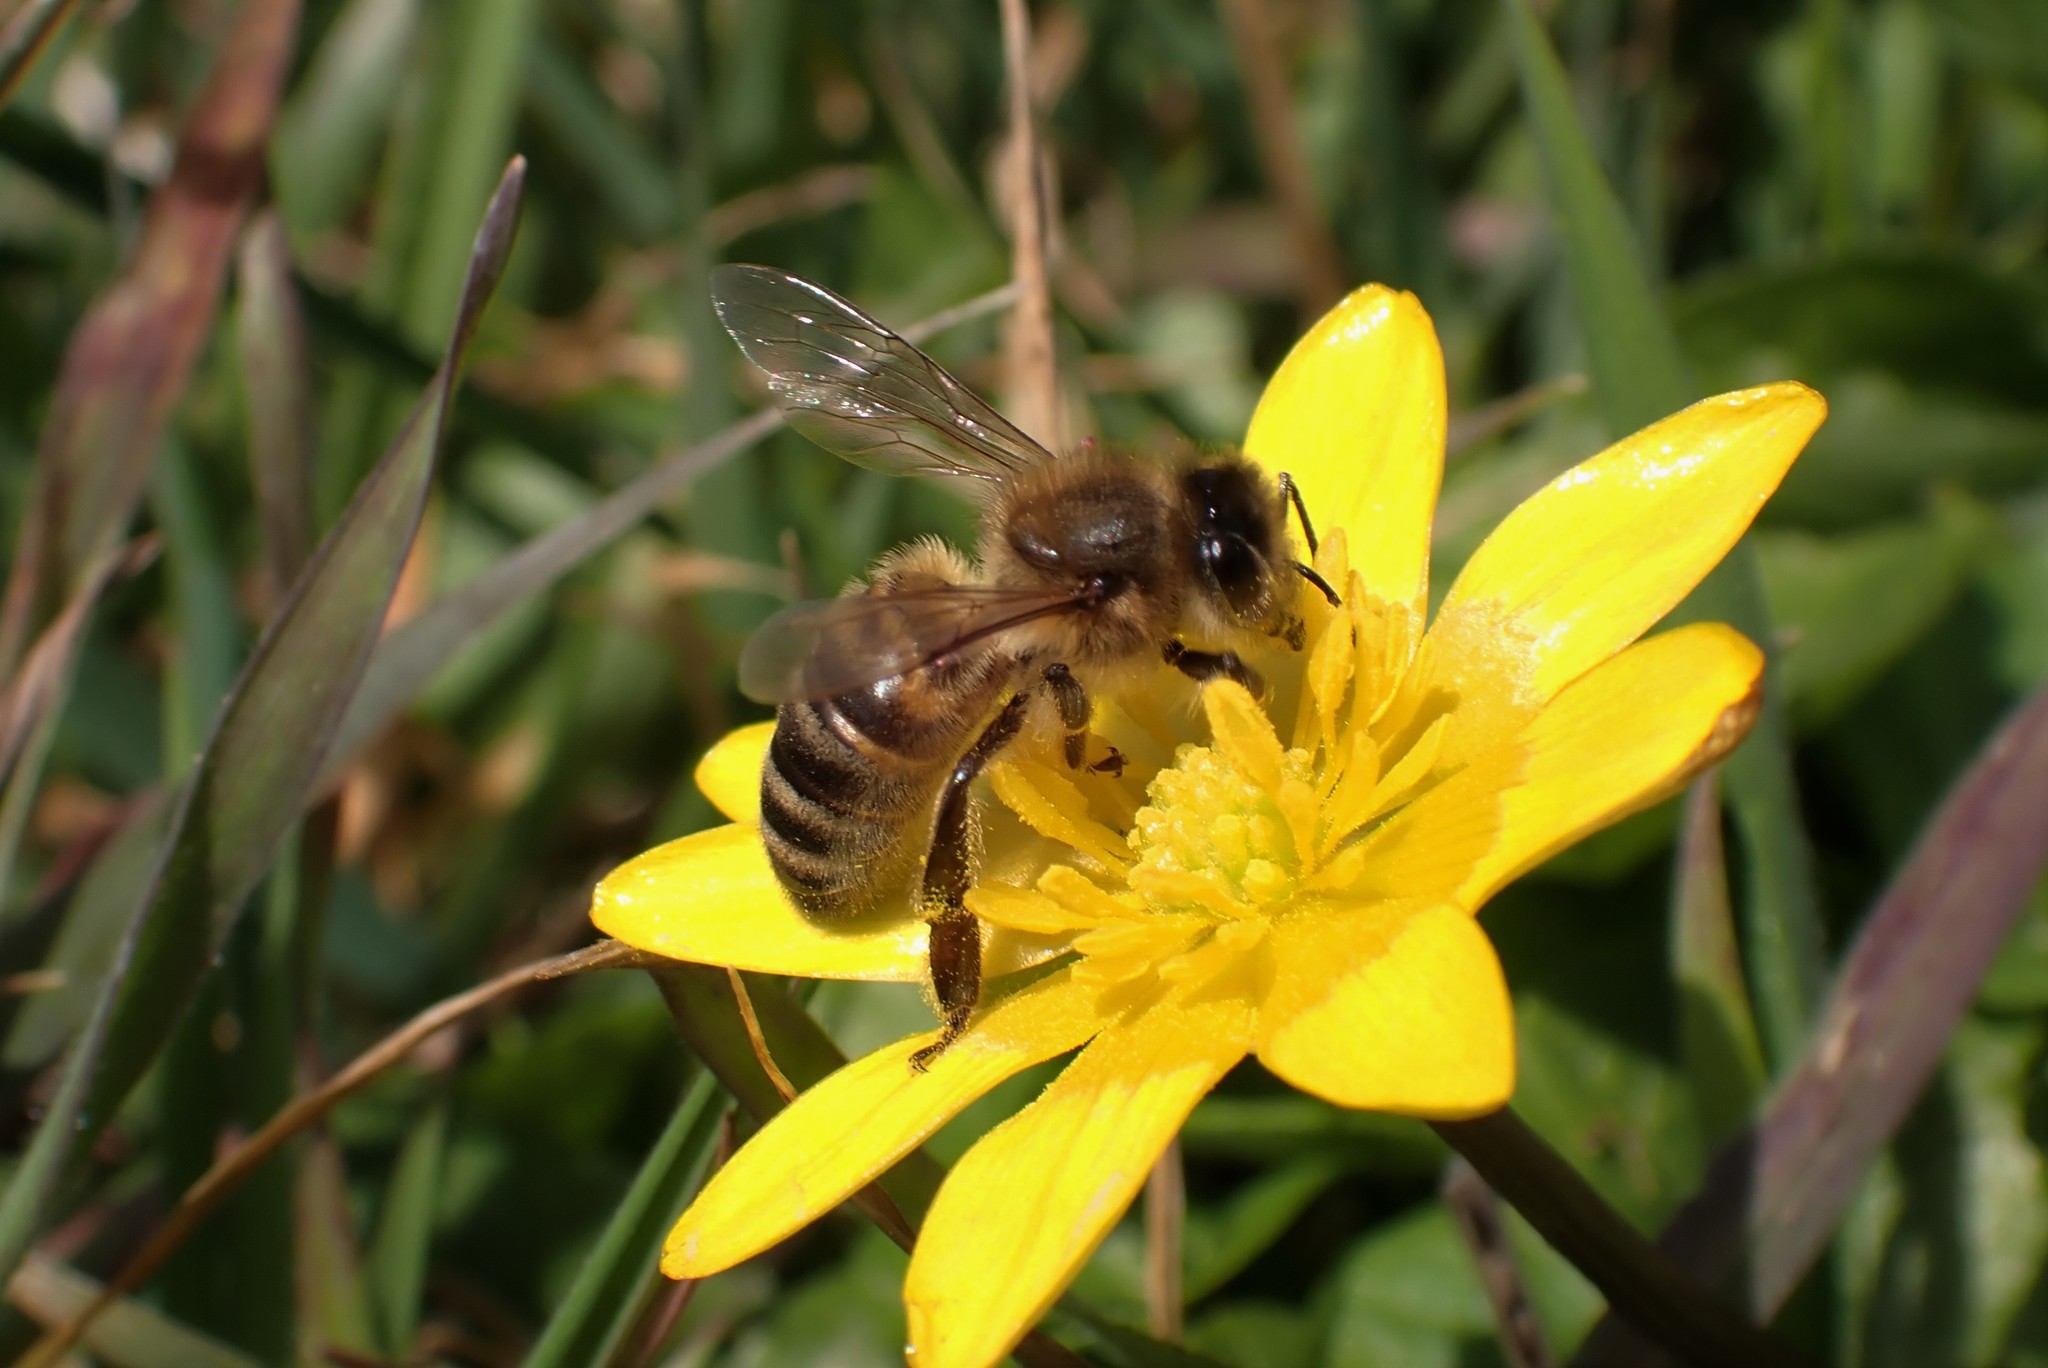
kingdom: Animalia
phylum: Arthropoda
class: Insecta
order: Hymenoptera
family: Apidae
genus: Apis
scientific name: Apis mellifera
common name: Honey bee
